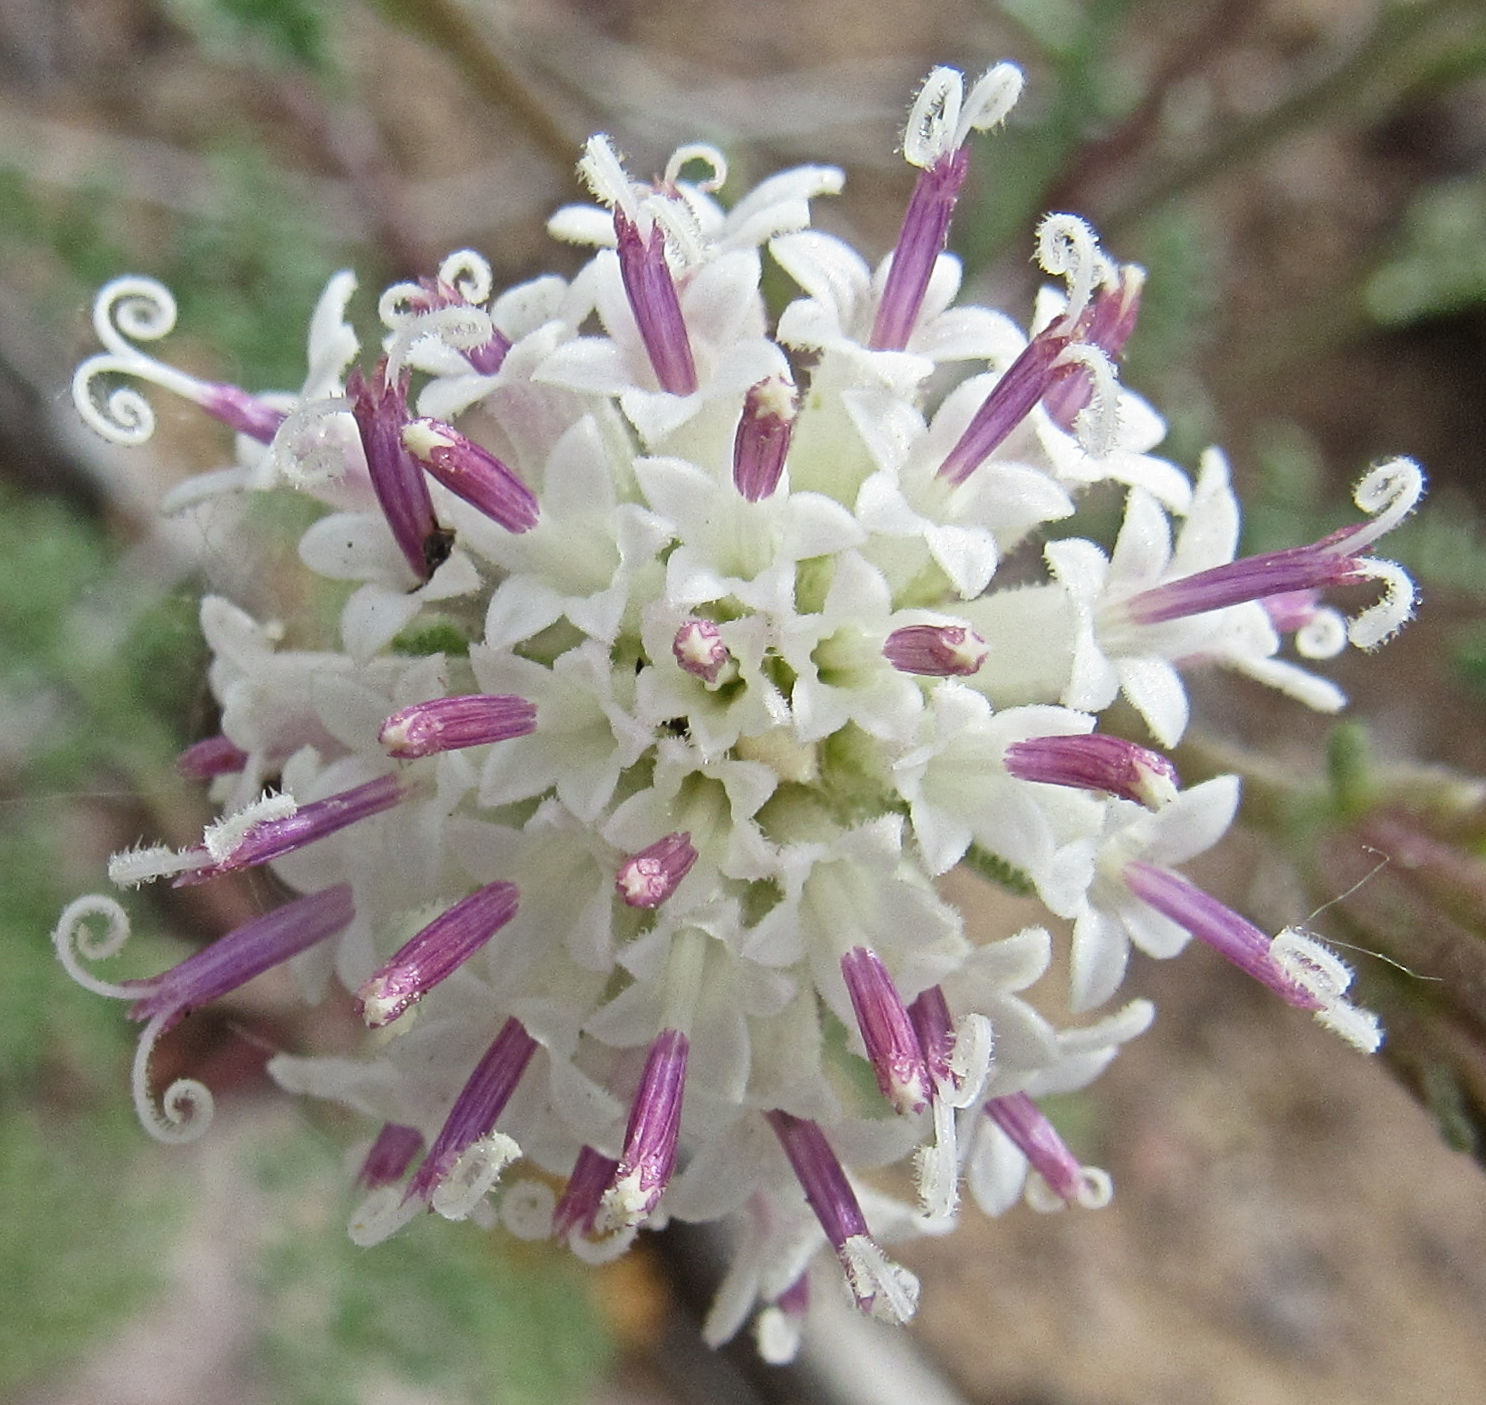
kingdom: Plantae
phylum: Tracheophyta
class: Magnoliopsida
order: Asterales
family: Asteraceae
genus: Chaenactis
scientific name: Chaenactis douglasii
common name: Hoary pincushion
